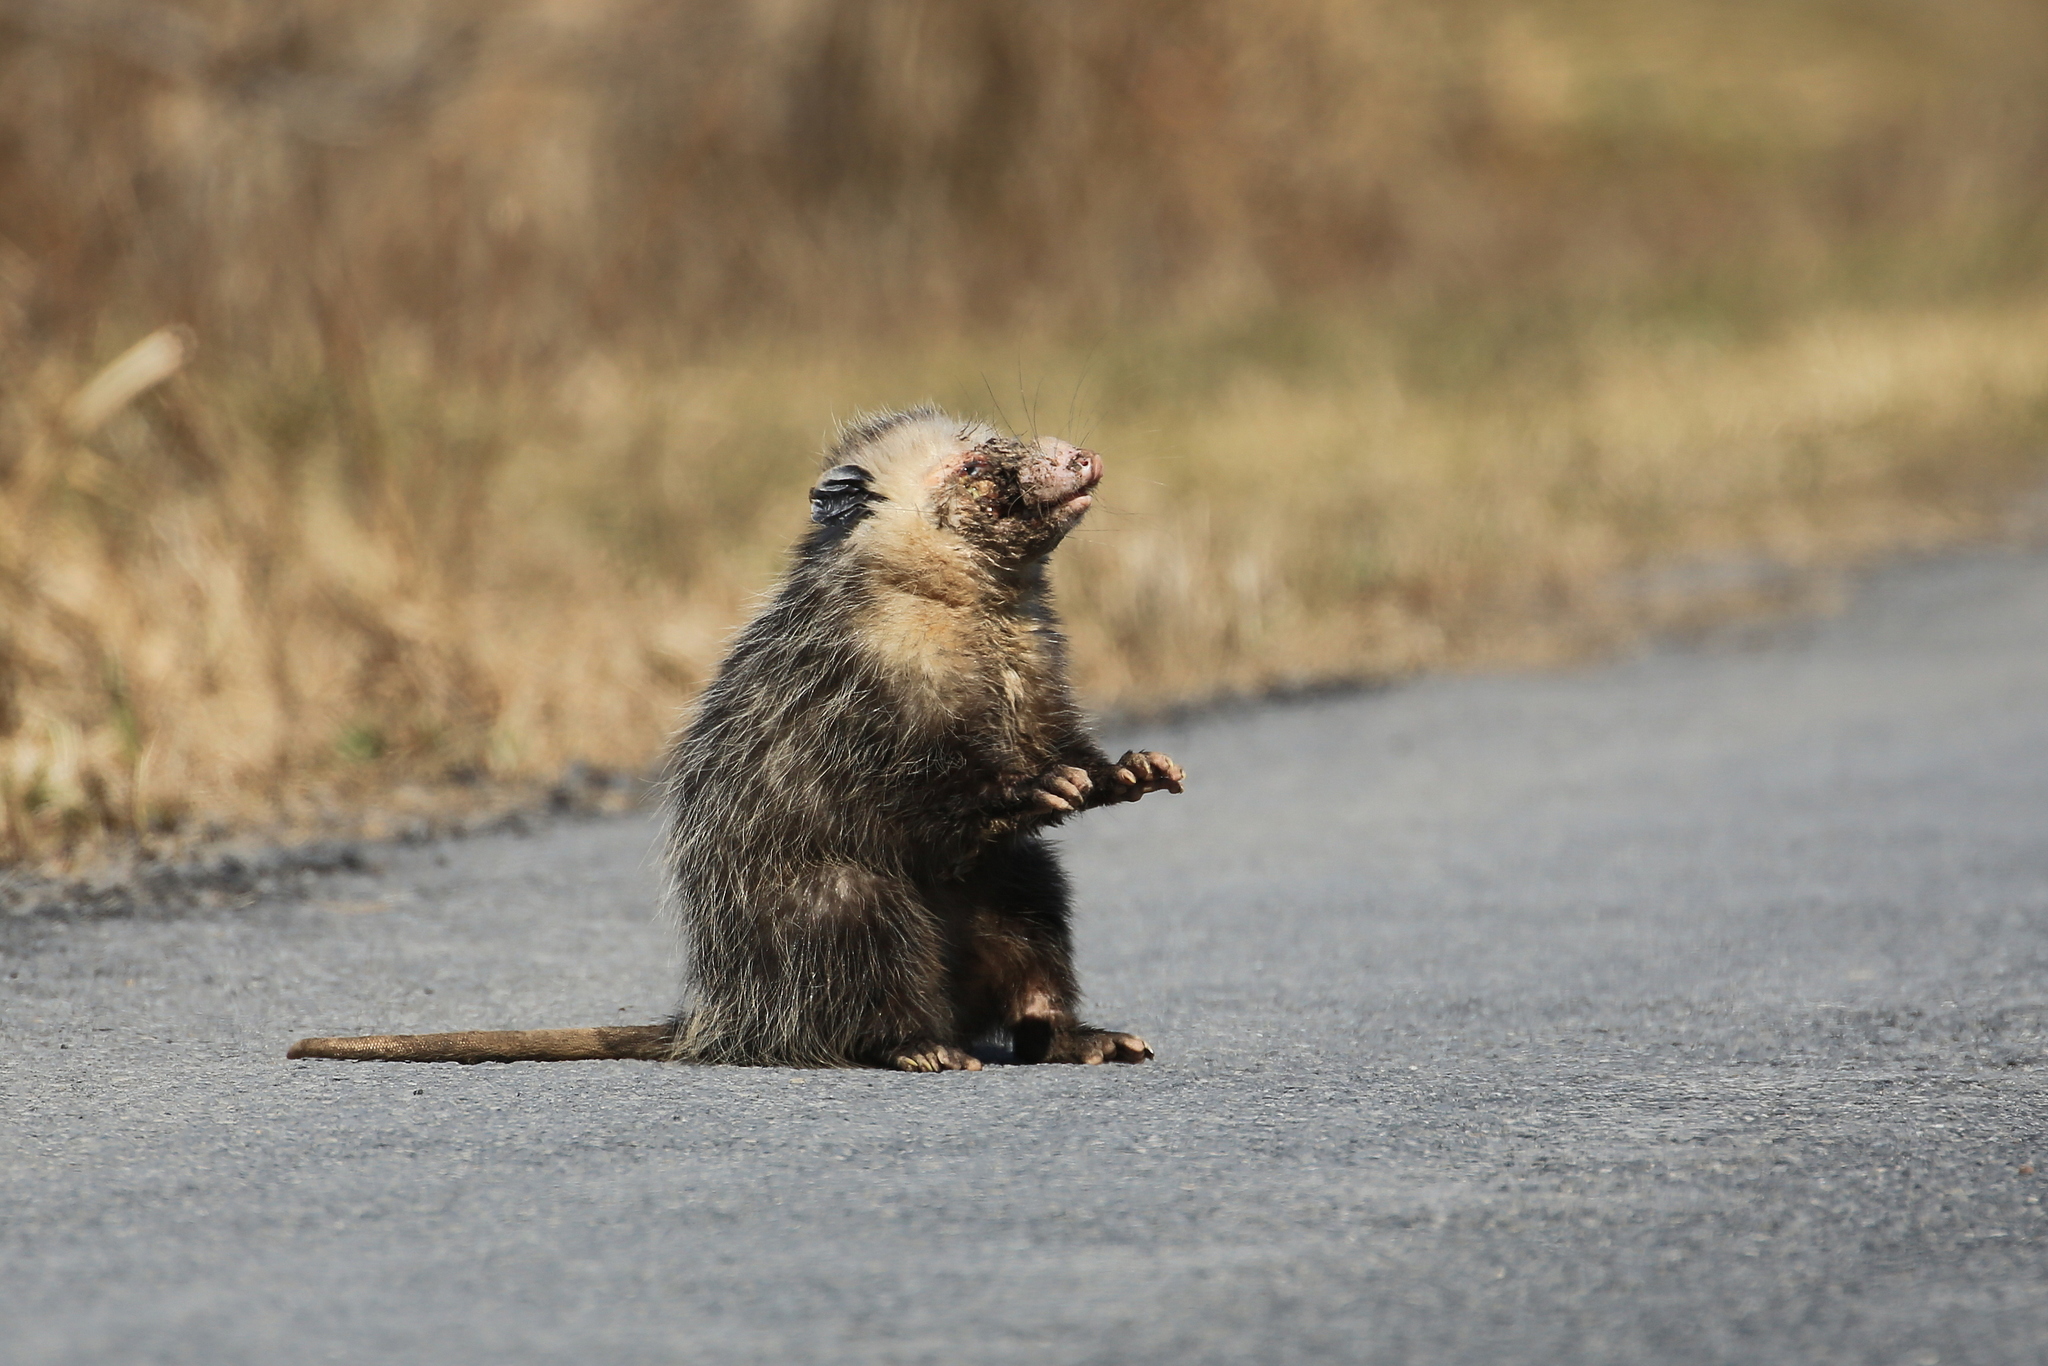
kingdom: Animalia
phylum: Chordata
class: Mammalia
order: Didelphimorphia
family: Didelphidae
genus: Didelphis
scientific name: Didelphis virginiana
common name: Virginia opossum
